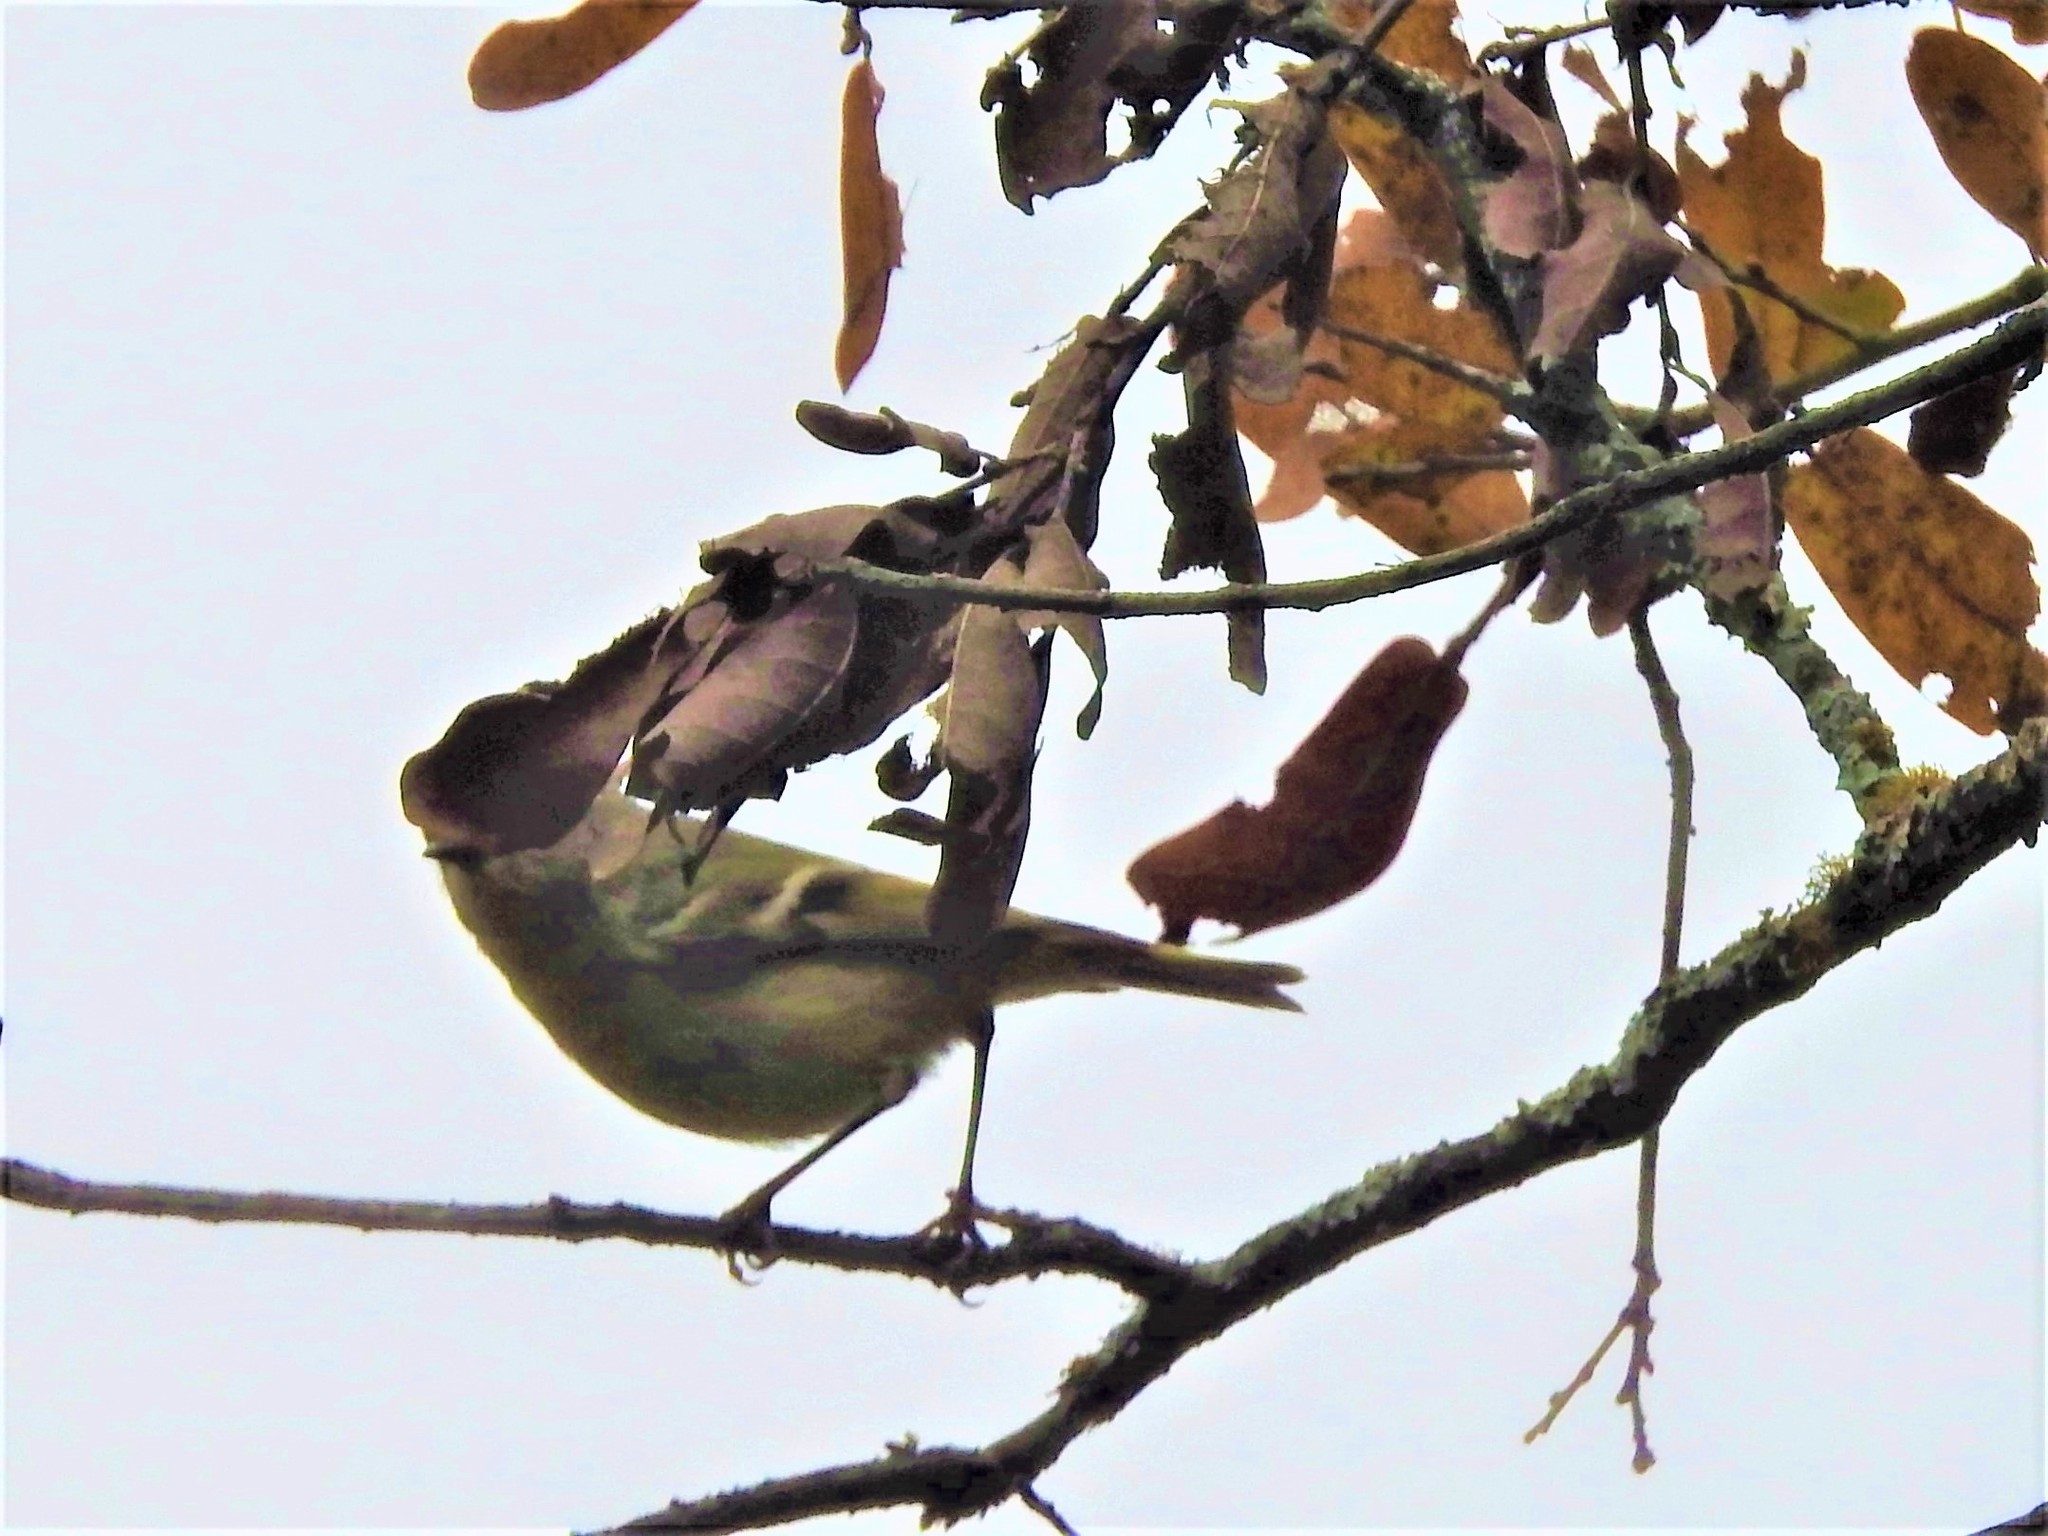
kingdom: Animalia
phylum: Chordata
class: Aves
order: Passeriformes
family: Regulidae
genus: Regulus
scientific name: Regulus calendula
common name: Ruby-crowned kinglet
